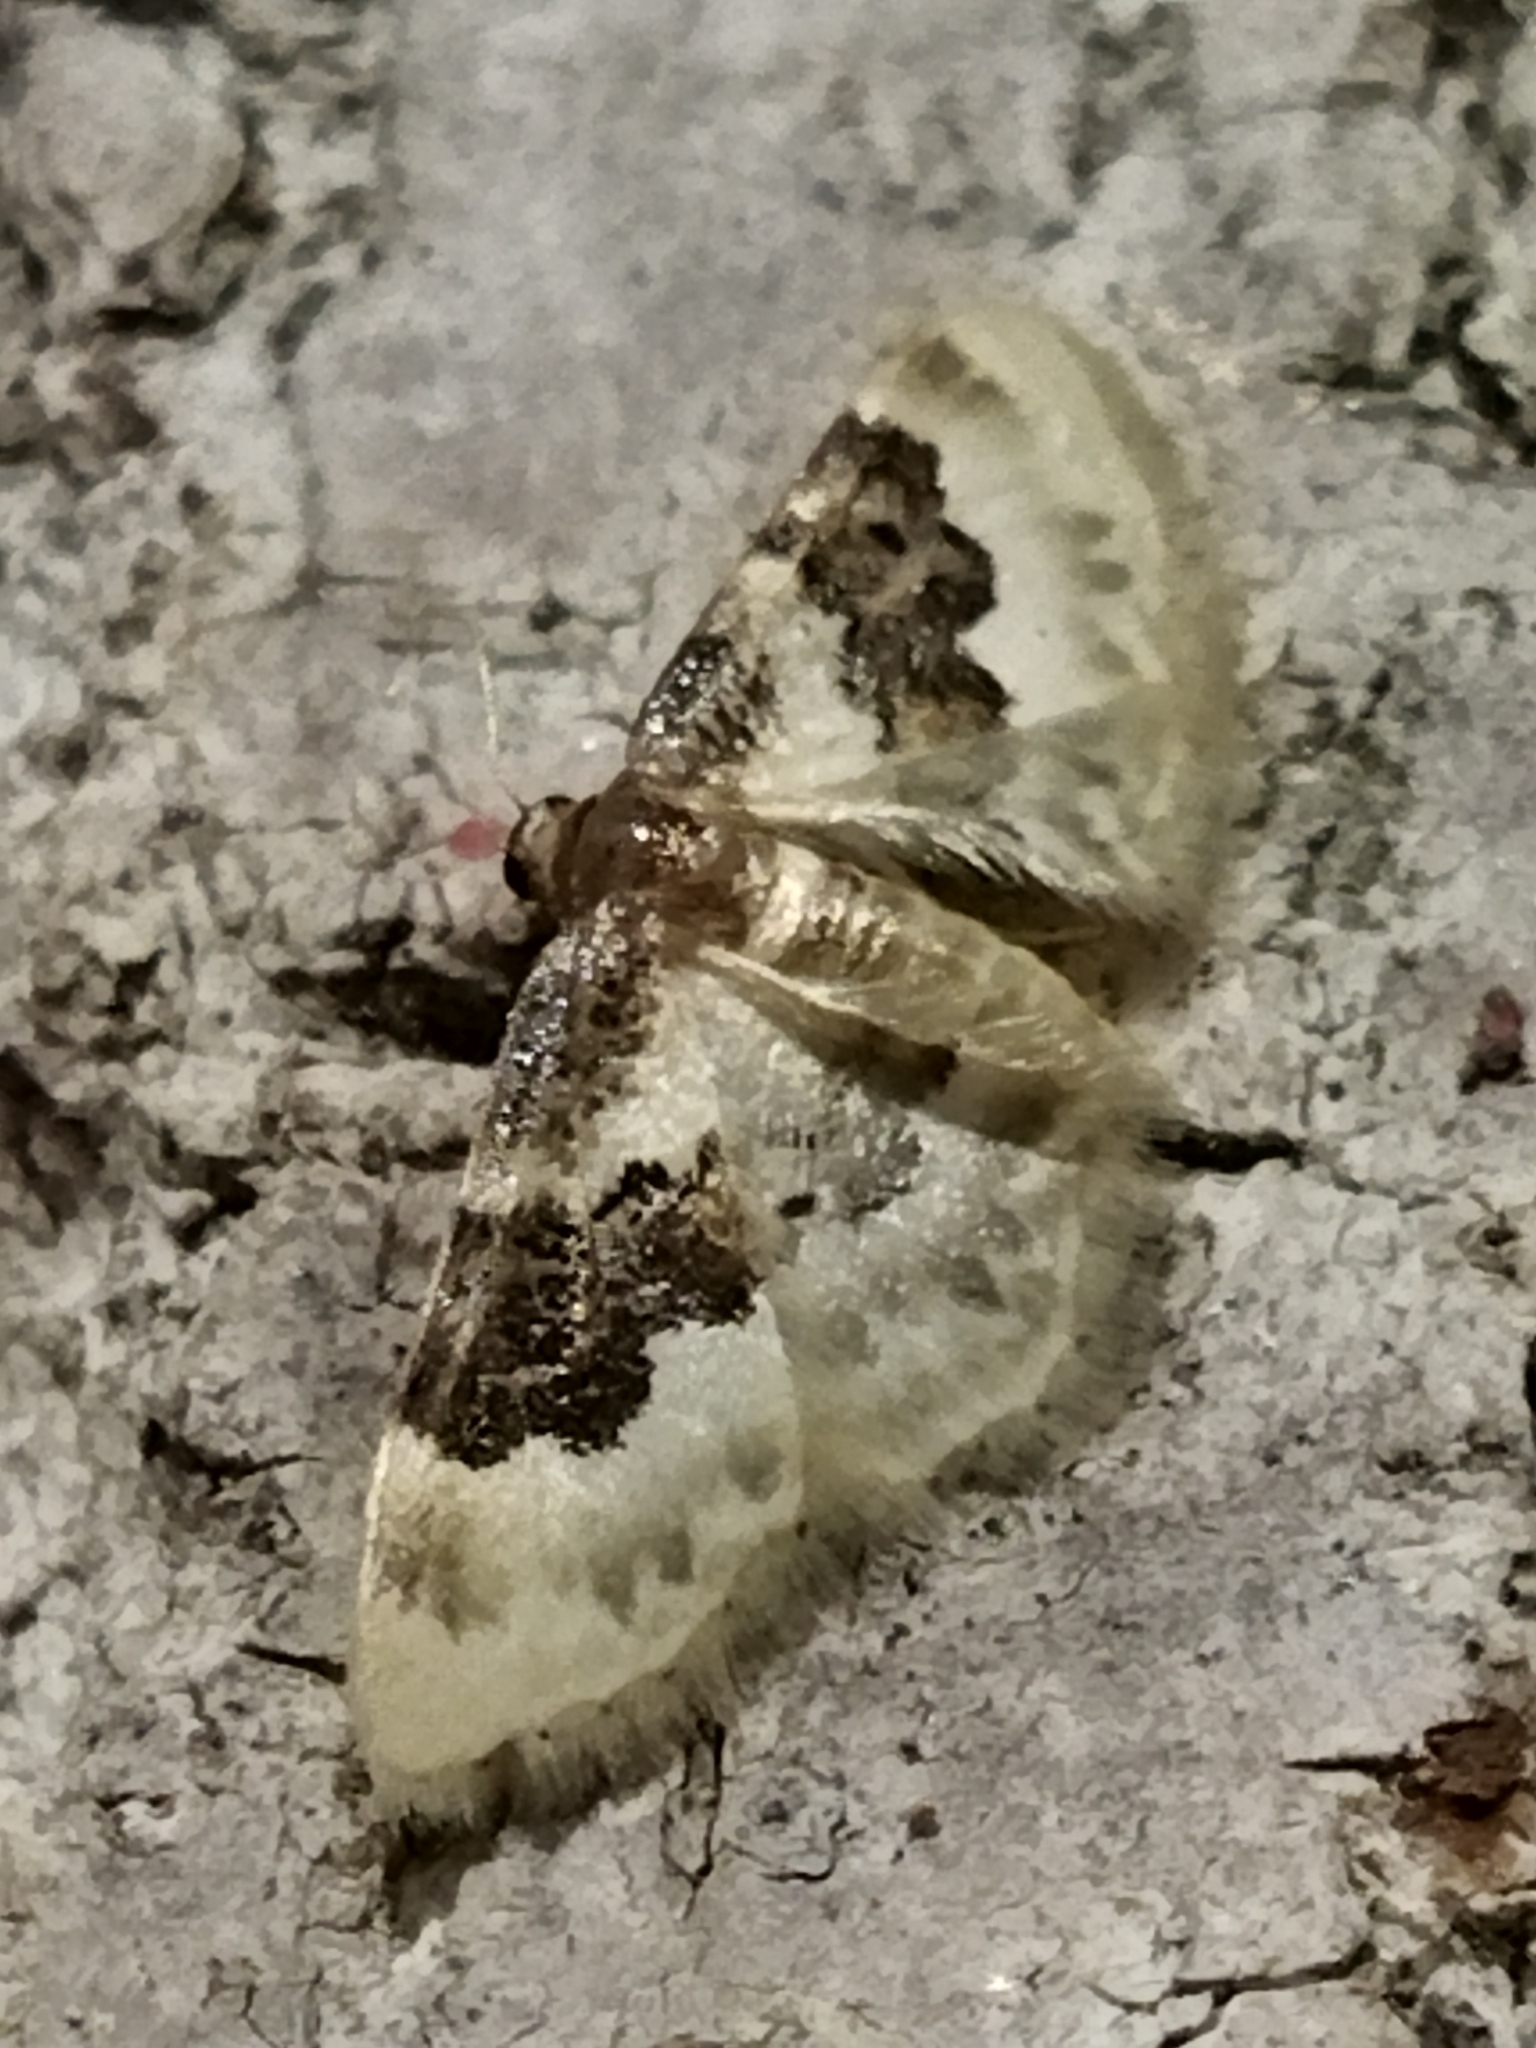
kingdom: Animalia
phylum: Arthropoda
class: Insecta
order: Lepidoptera
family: Geometridae
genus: Idaea
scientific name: Idaea rusticata
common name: Least carpet
